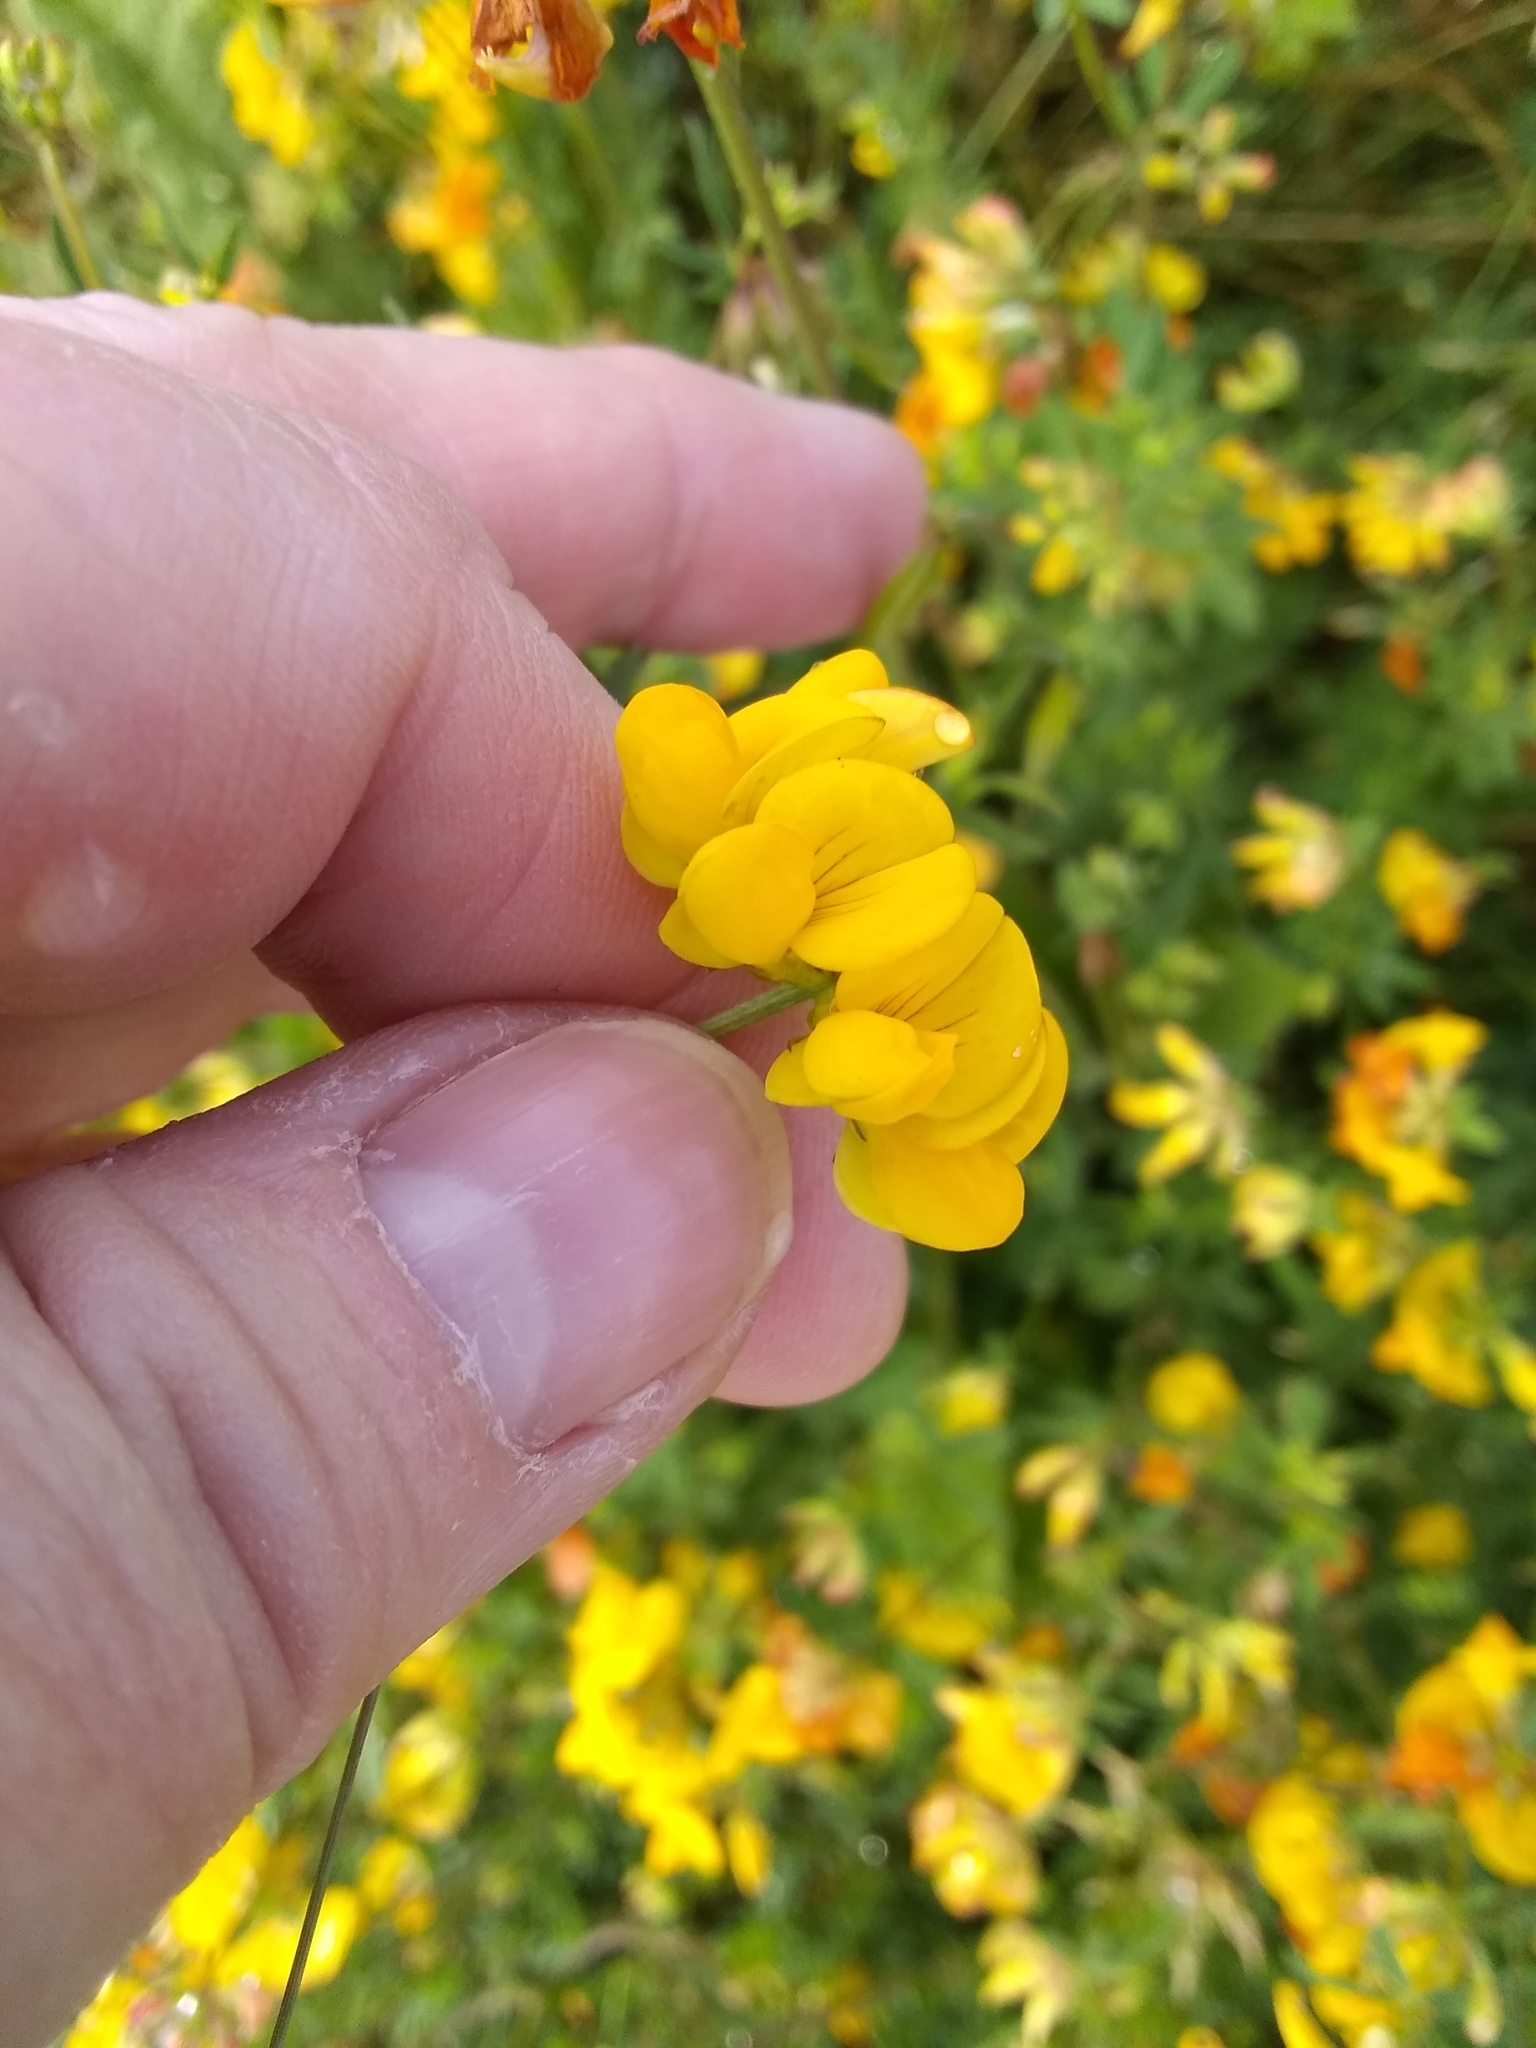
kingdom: Plantae
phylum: Tracheophyta
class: Magnoliopsida
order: Fabales
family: Fabaceae
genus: Lotus
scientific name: Lotus corniculatus
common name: Common bird's-foot-trefoil
